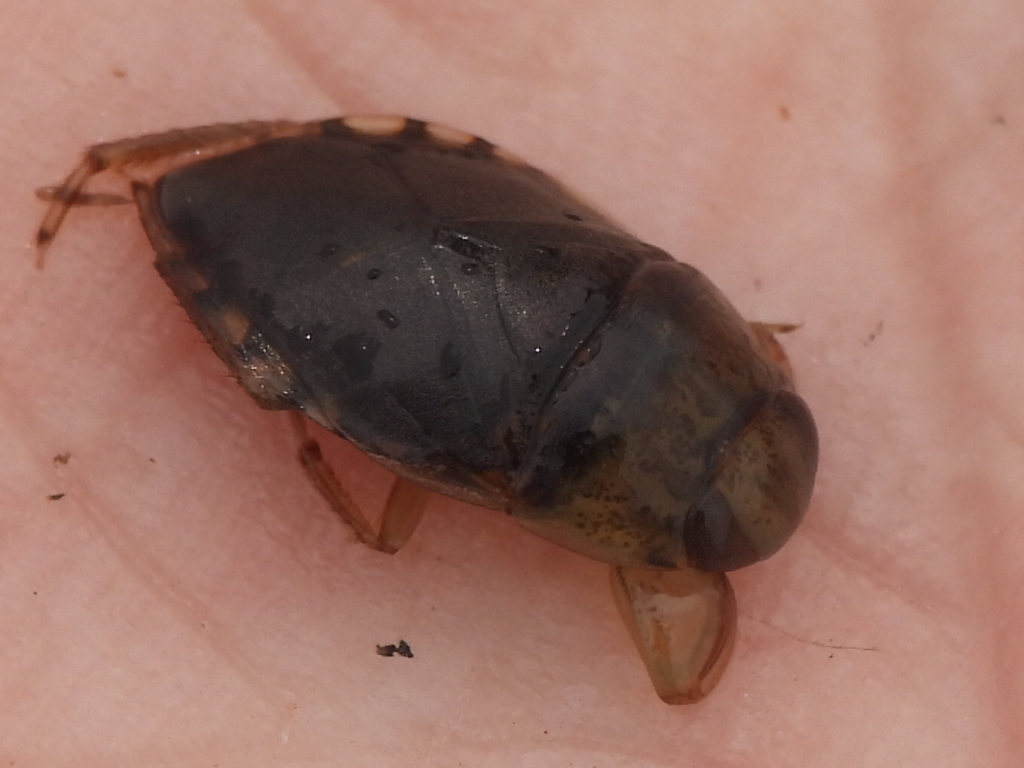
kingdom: Animalia
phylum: Arthropoda
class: Insecta
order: Hemiptera
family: Naucoridae
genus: Pelocoris
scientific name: Pelocoris biimpressus
